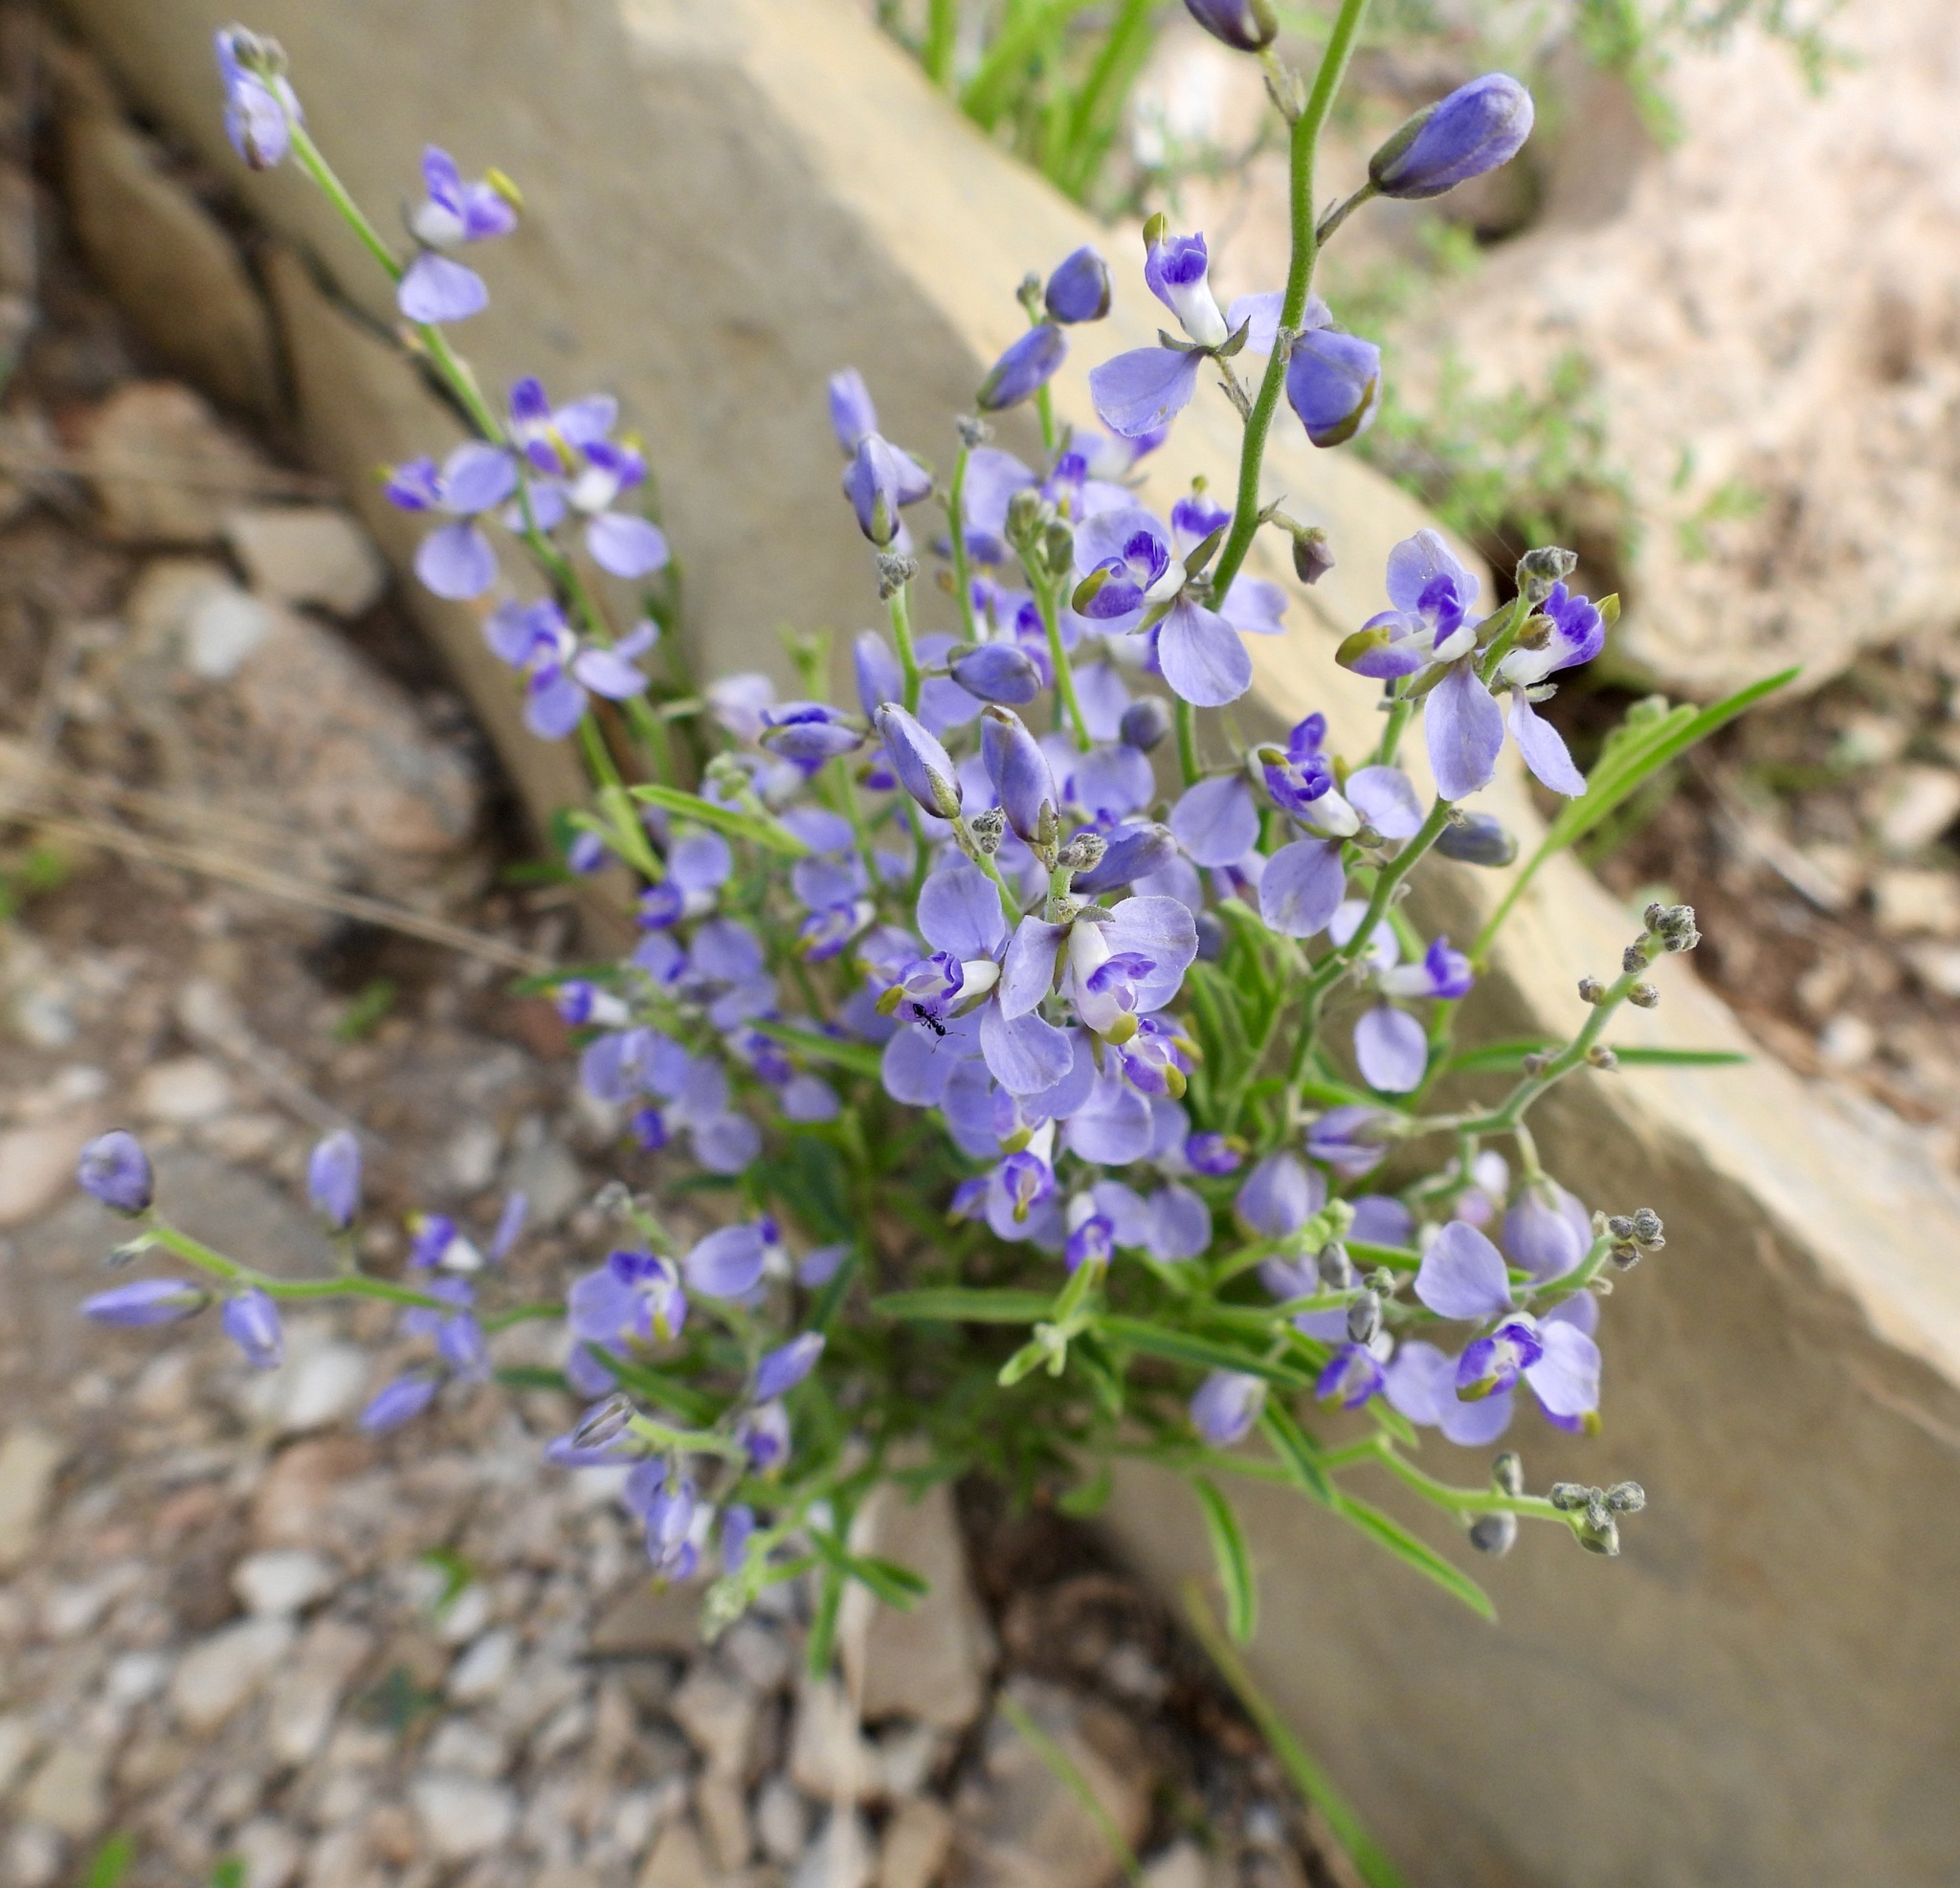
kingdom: Plantae
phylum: Tracheophyta
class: Magnoliopsida
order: Fabales
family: Polygalaceae
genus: Hebecarpa
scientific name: Hebecarpa barbeyana
